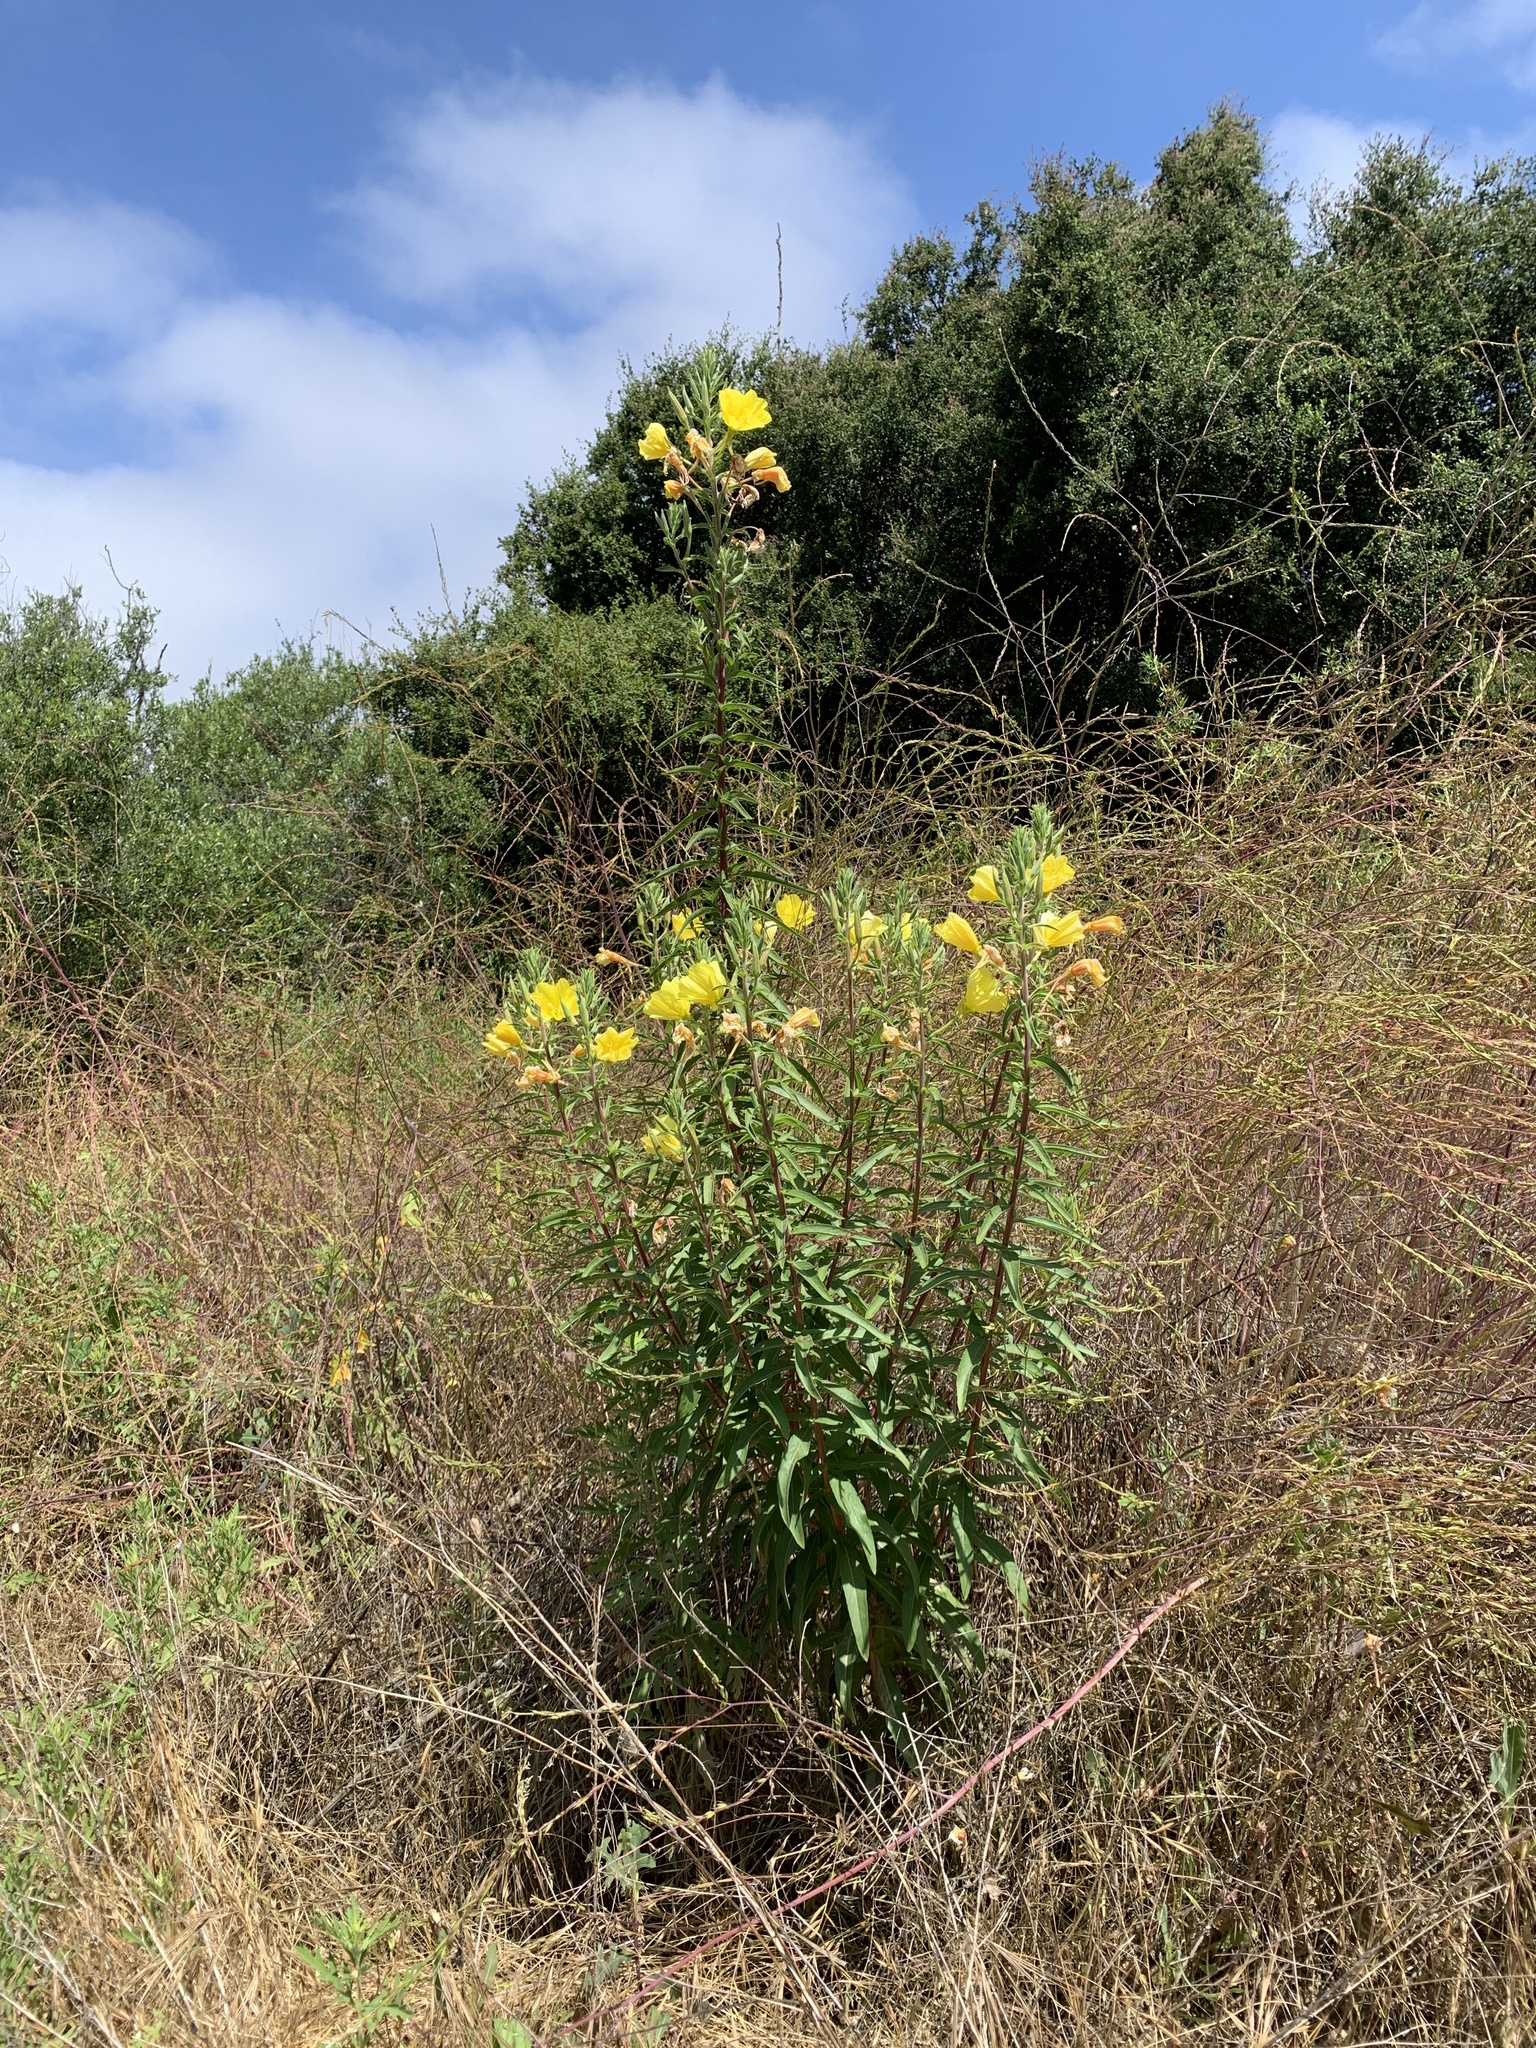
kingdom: Plantae
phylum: Tracheophyta
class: Magnoliopsida
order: Myrtales
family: Onagraceae
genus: Oenothera
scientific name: Oenothera elata
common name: Hooker's evening-primrose
